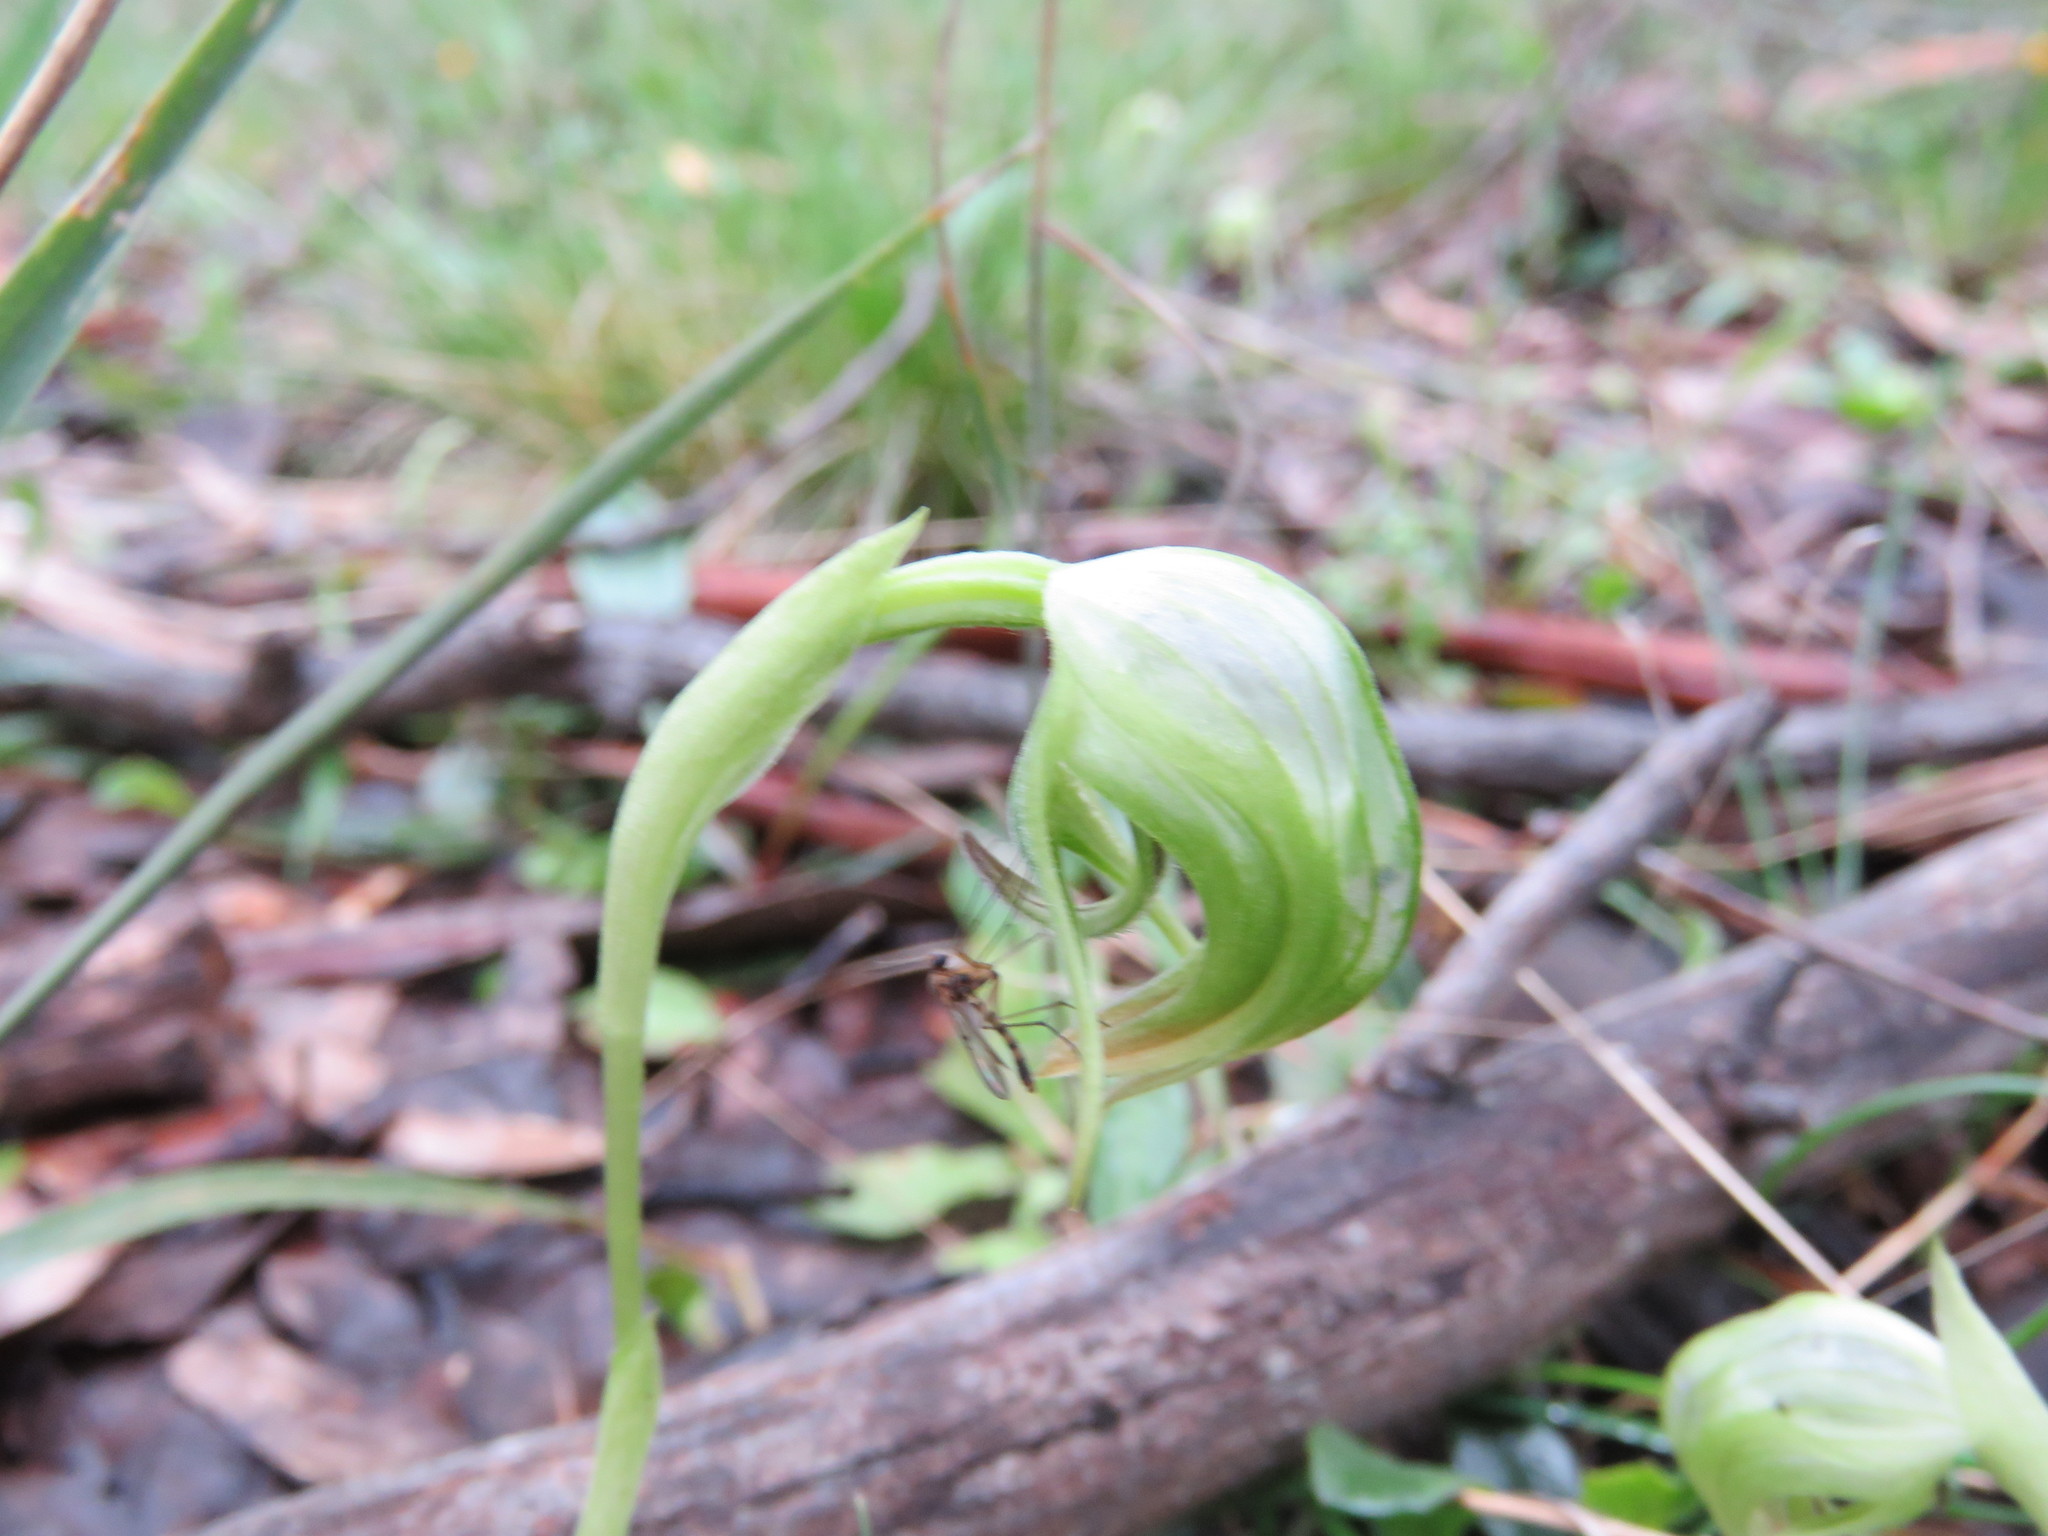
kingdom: Plantae
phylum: Tracheophyta
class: Liliopsida
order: Asparagales
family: Orchidaceae
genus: Pterostylis
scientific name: Pterostylis nutans
